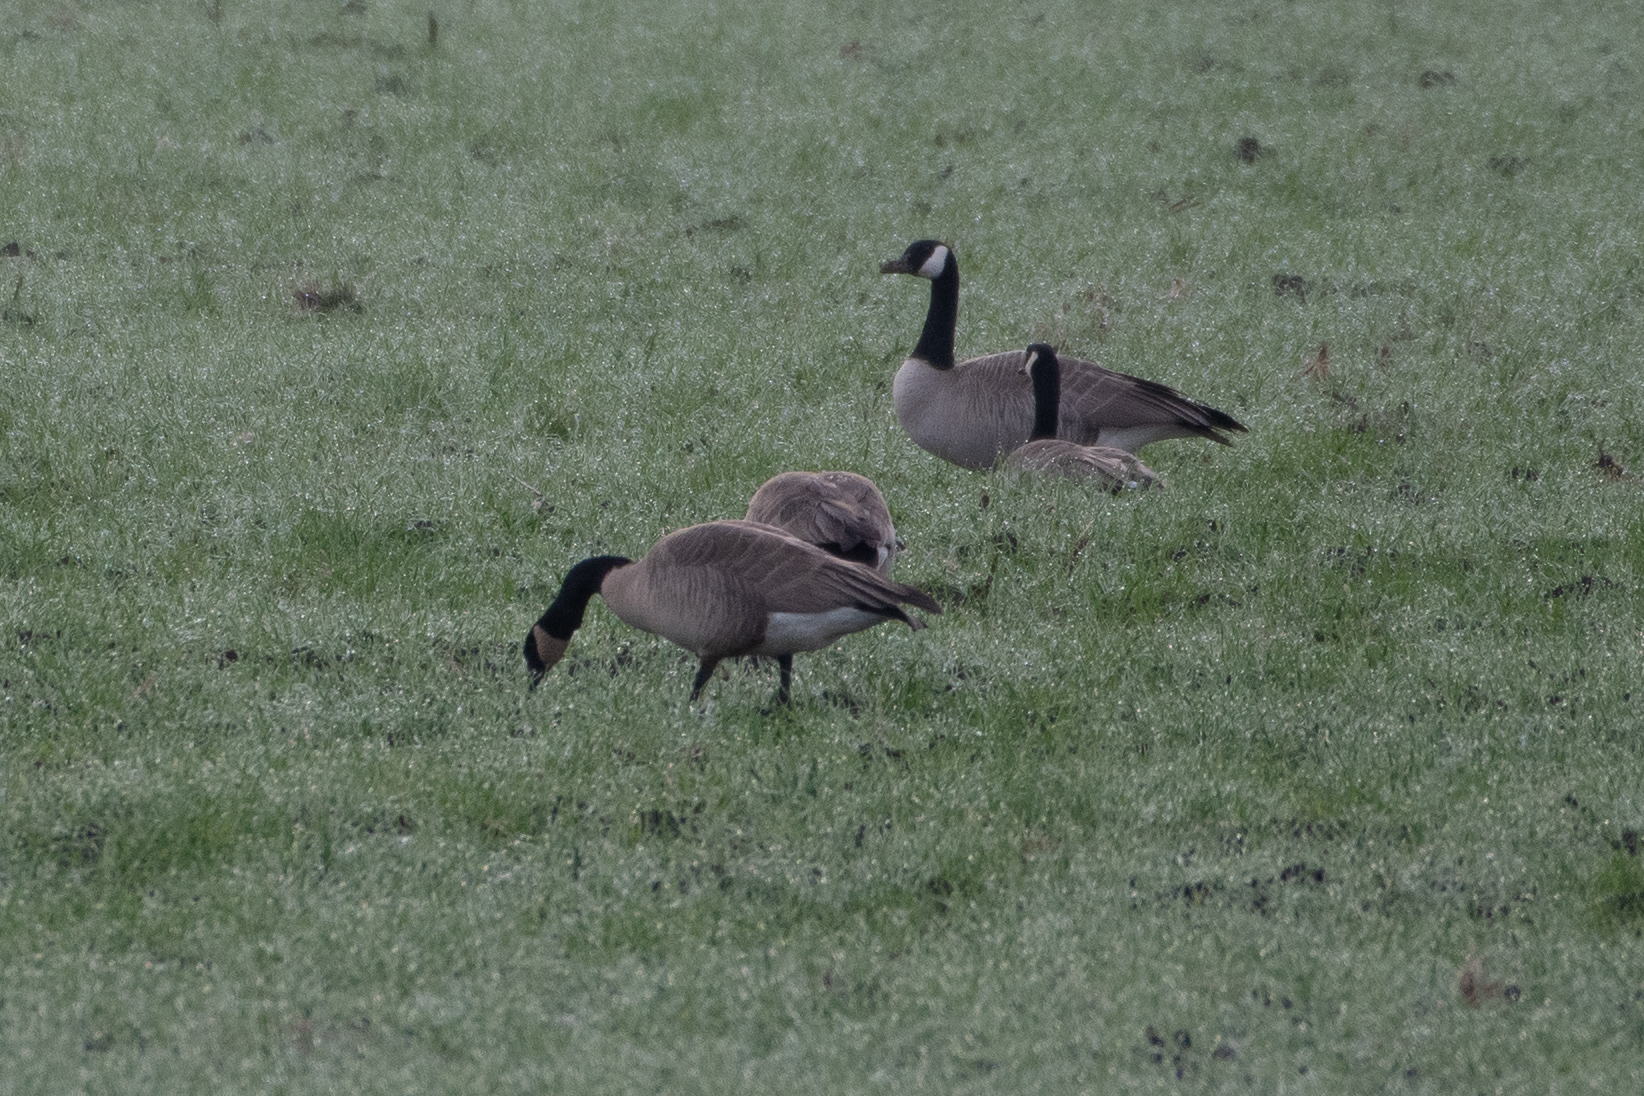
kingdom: Animalia
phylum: Chordata
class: Aves
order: Anseriformes
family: Anatidae
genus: Branta
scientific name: Branta canadensis
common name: Canada goose
